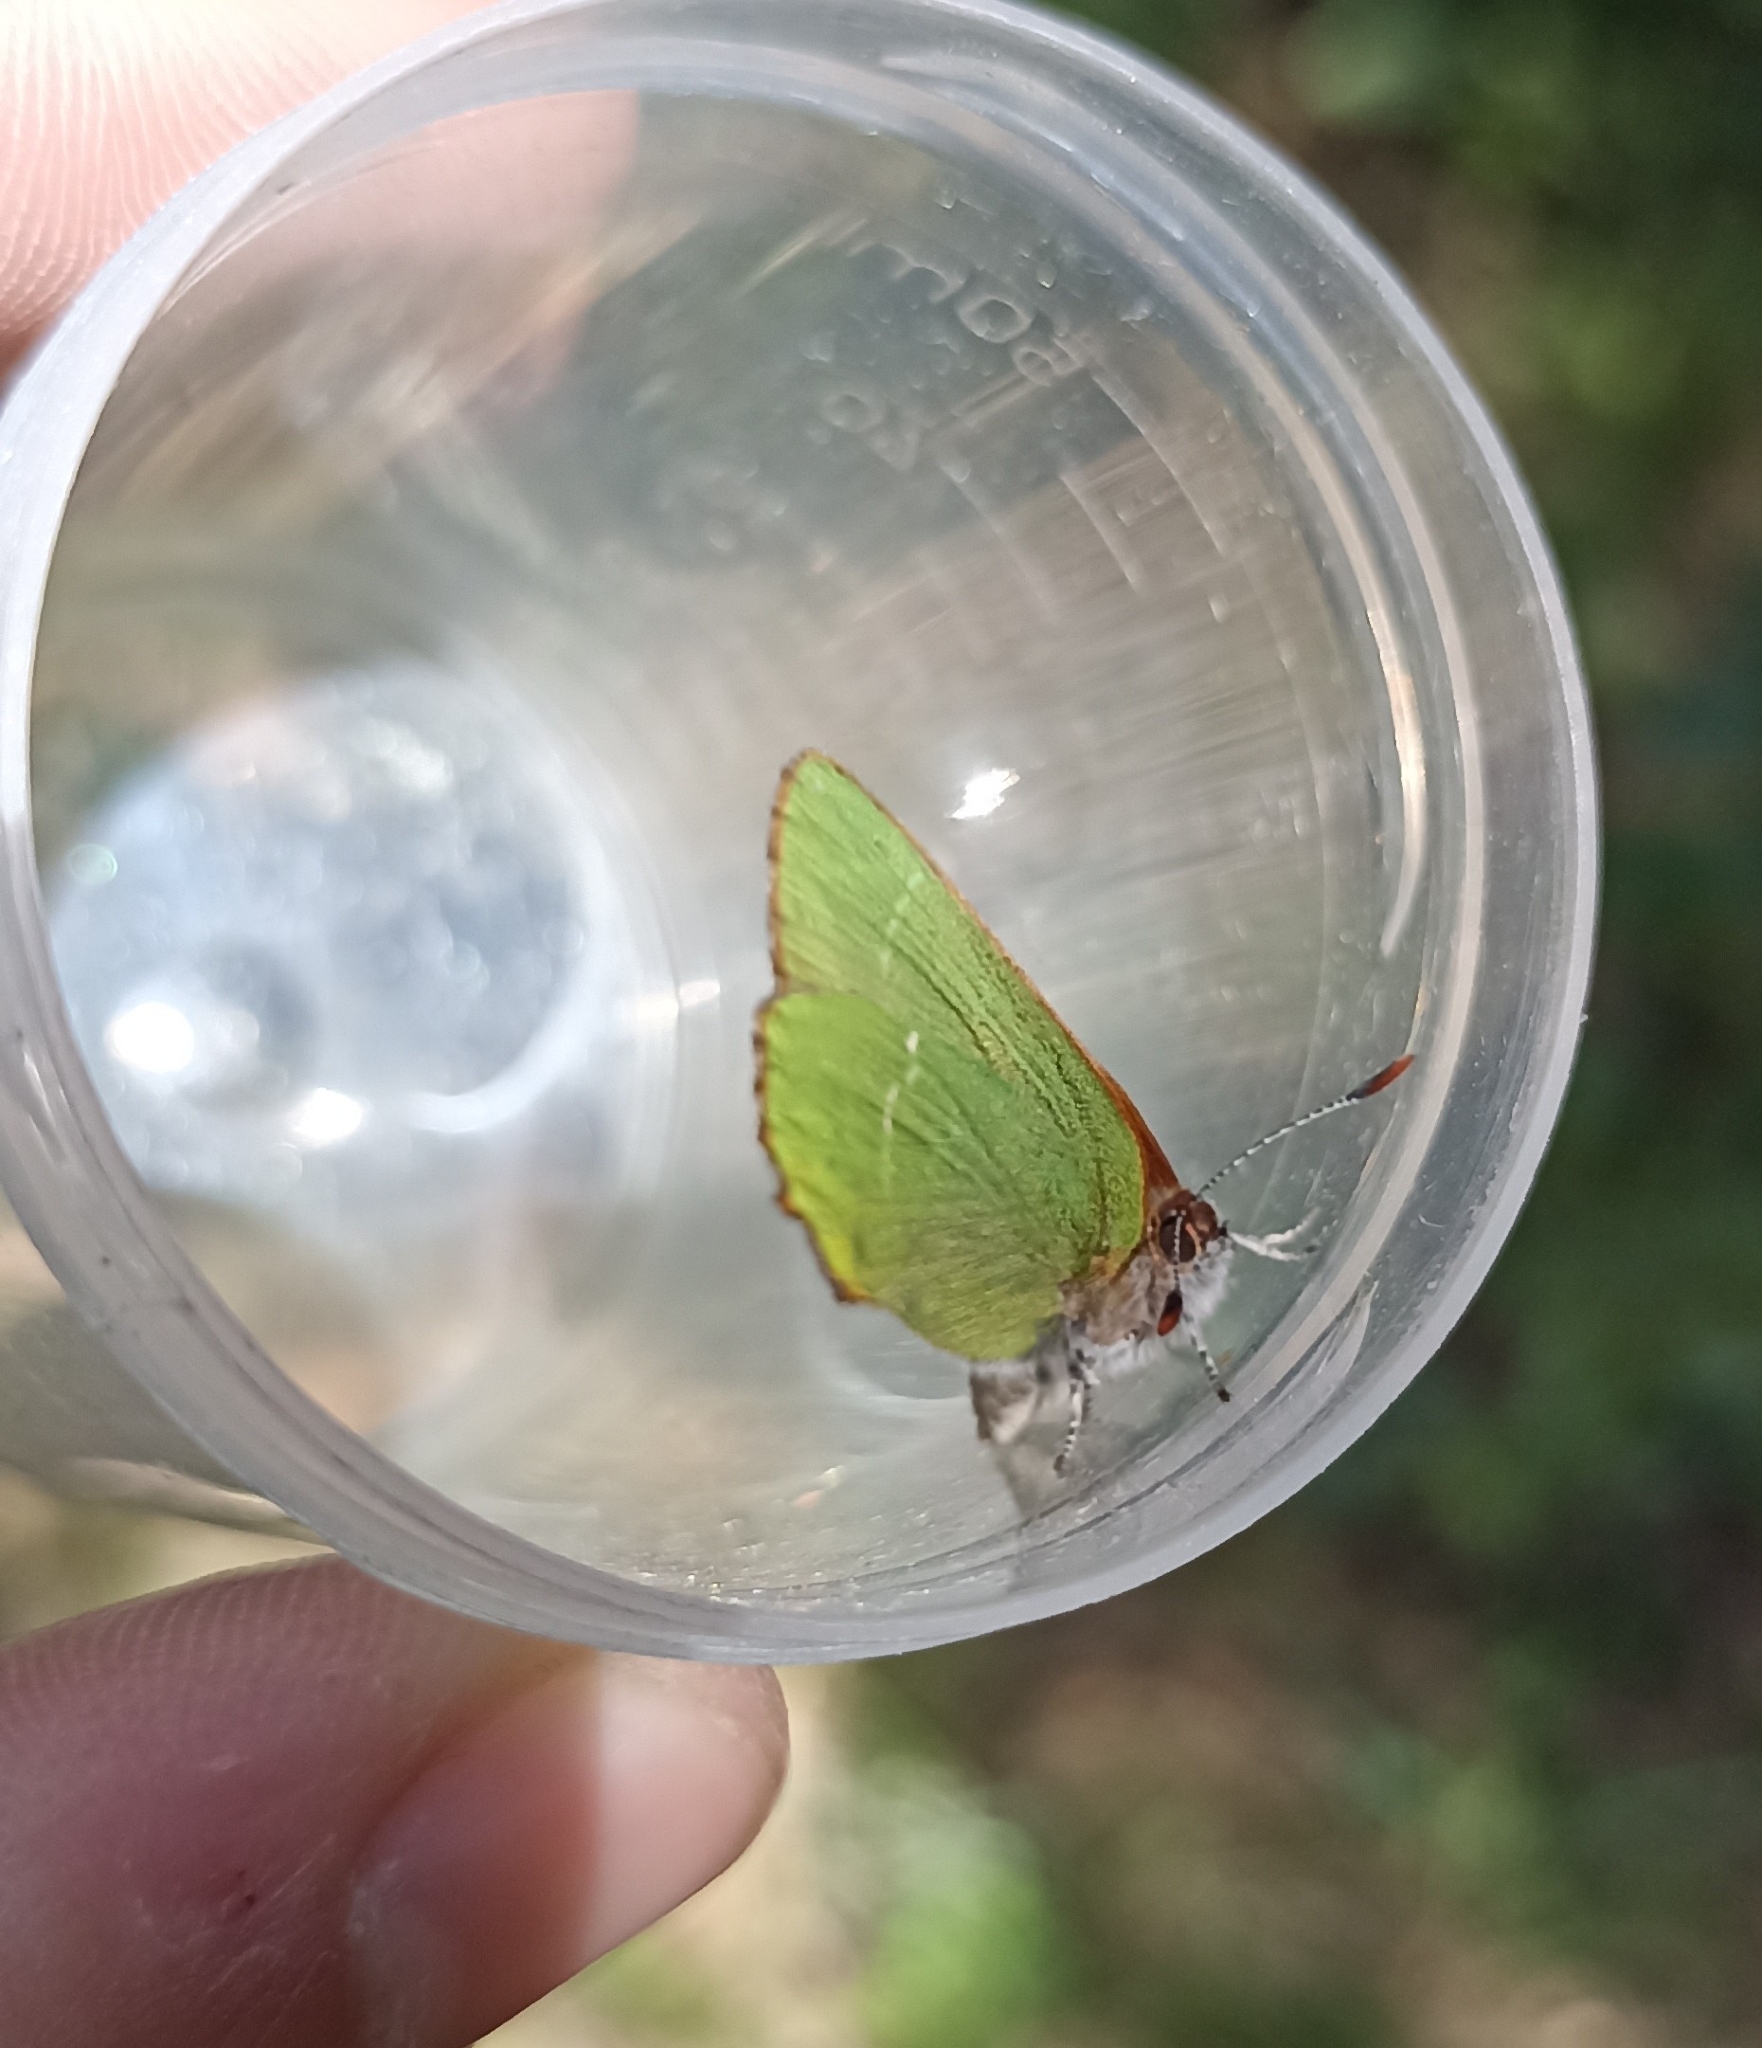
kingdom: Animalia
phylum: Arthropoda
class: Insecta
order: Lepidoptera
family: Lycaenidae
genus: Callophrys
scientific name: Callophrys avis
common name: Chapman's green hairstreak
